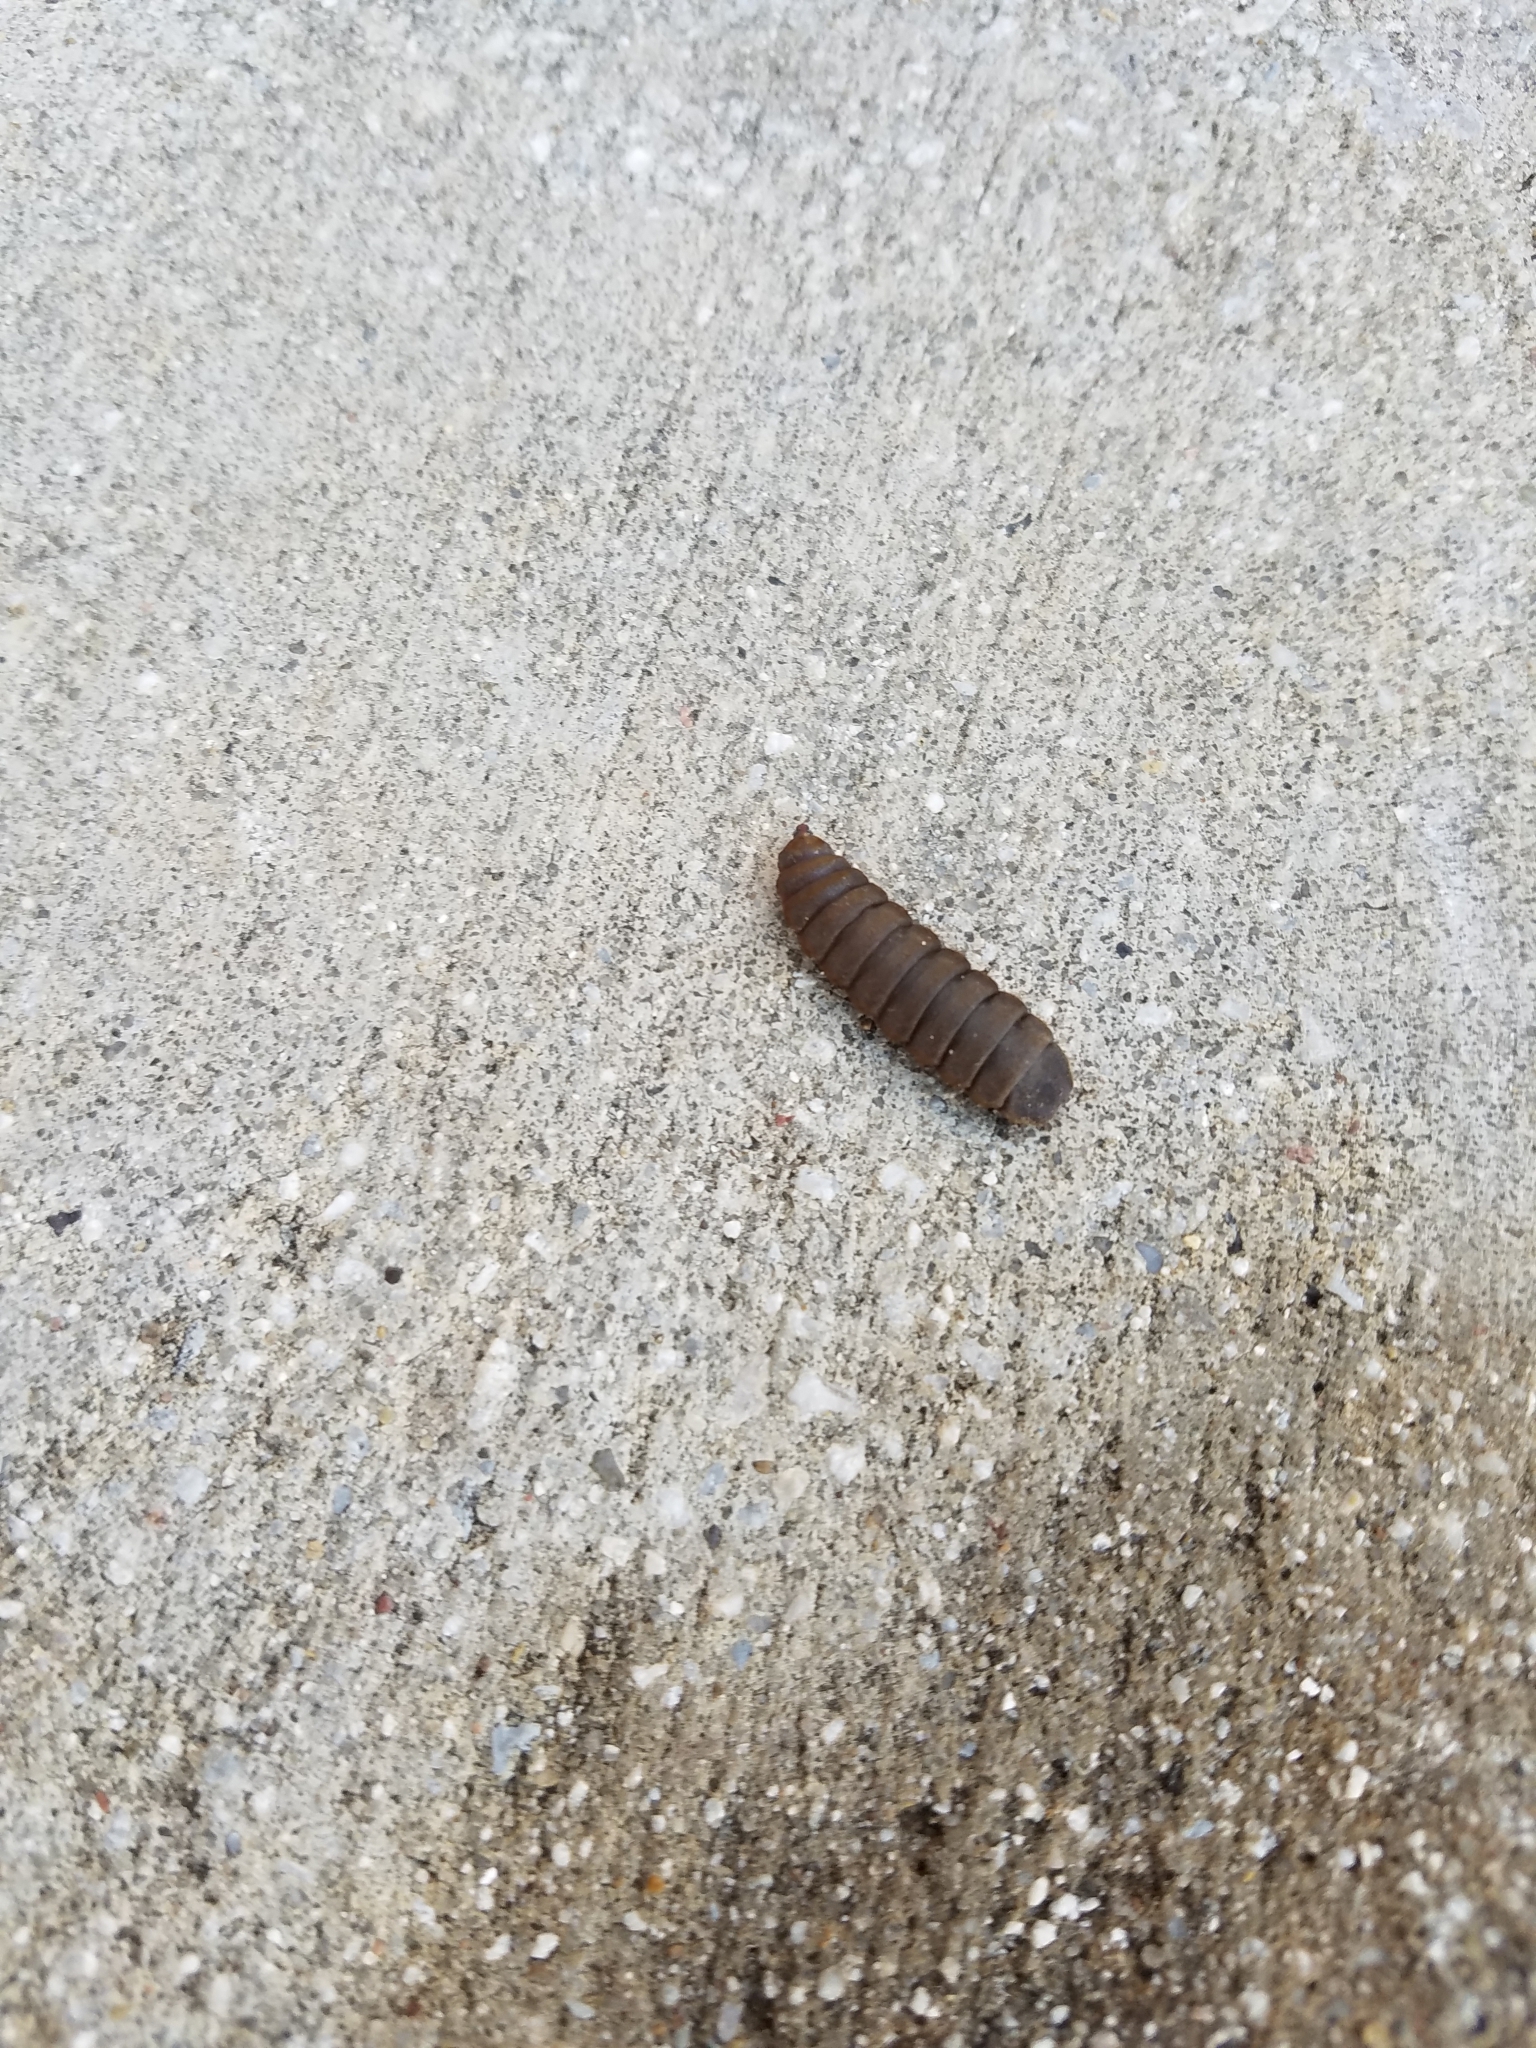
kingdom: Animalia
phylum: Arthropoda
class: Insecta
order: Diptera
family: Stratiomyidae
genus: Hermetia
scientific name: Hermetia illucens
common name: Black soldier fly
